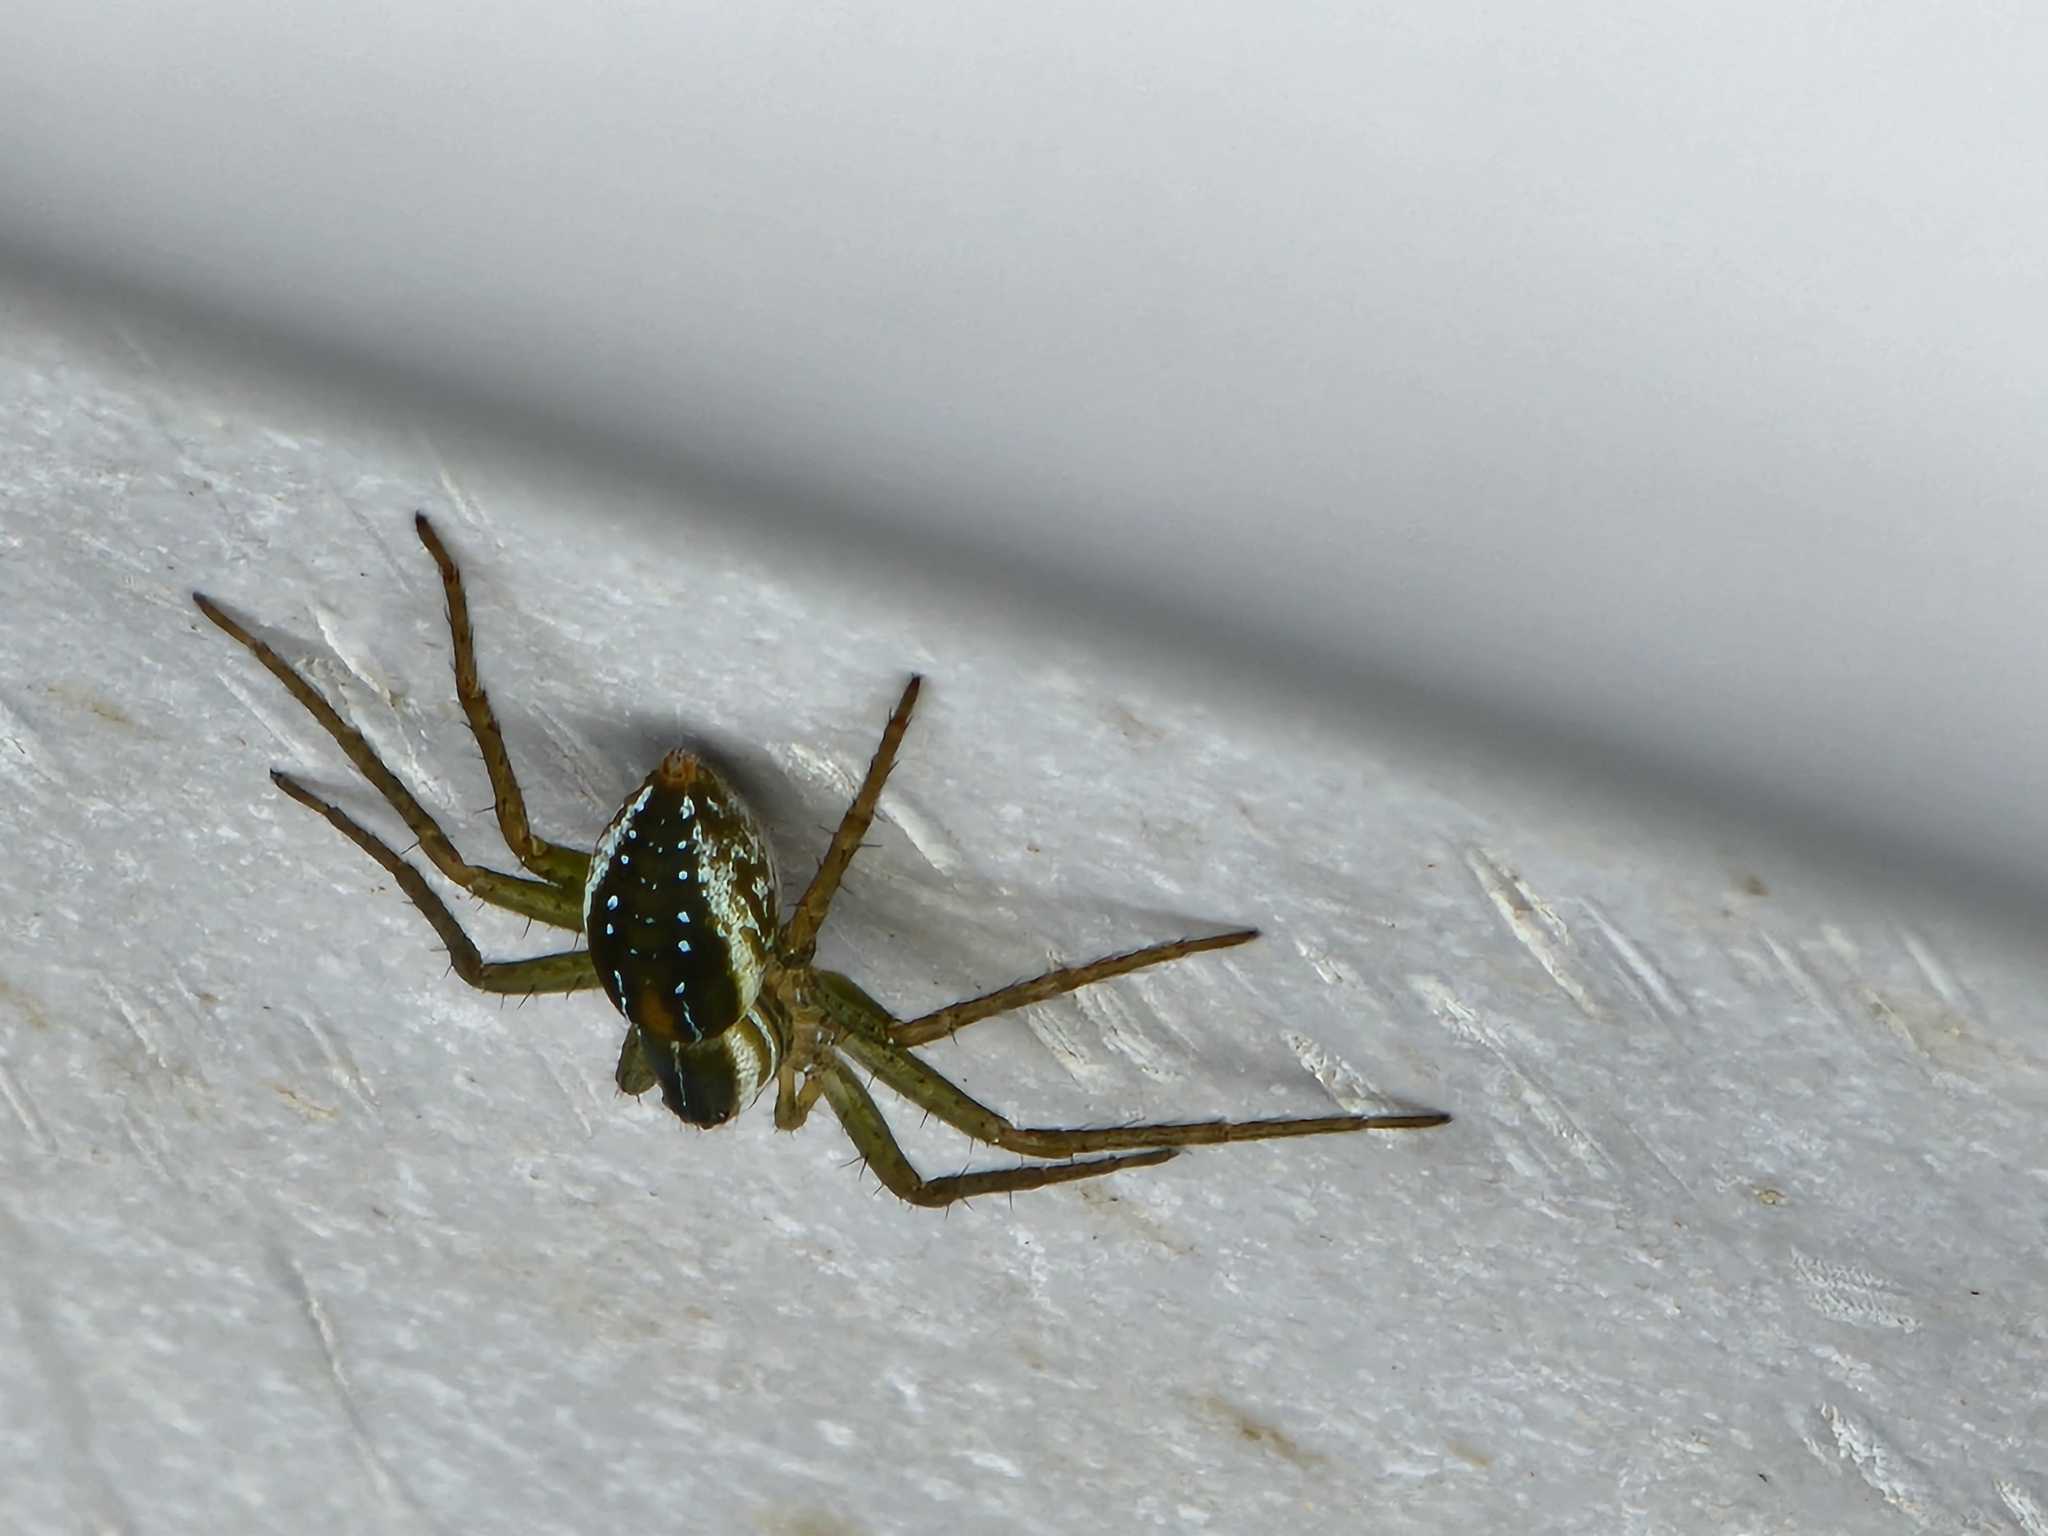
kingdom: Animalia
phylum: Arthropoda
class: Arachnida
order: Araneae
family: Pisauridae
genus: Dolomedes
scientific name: Dolomedes facetus
